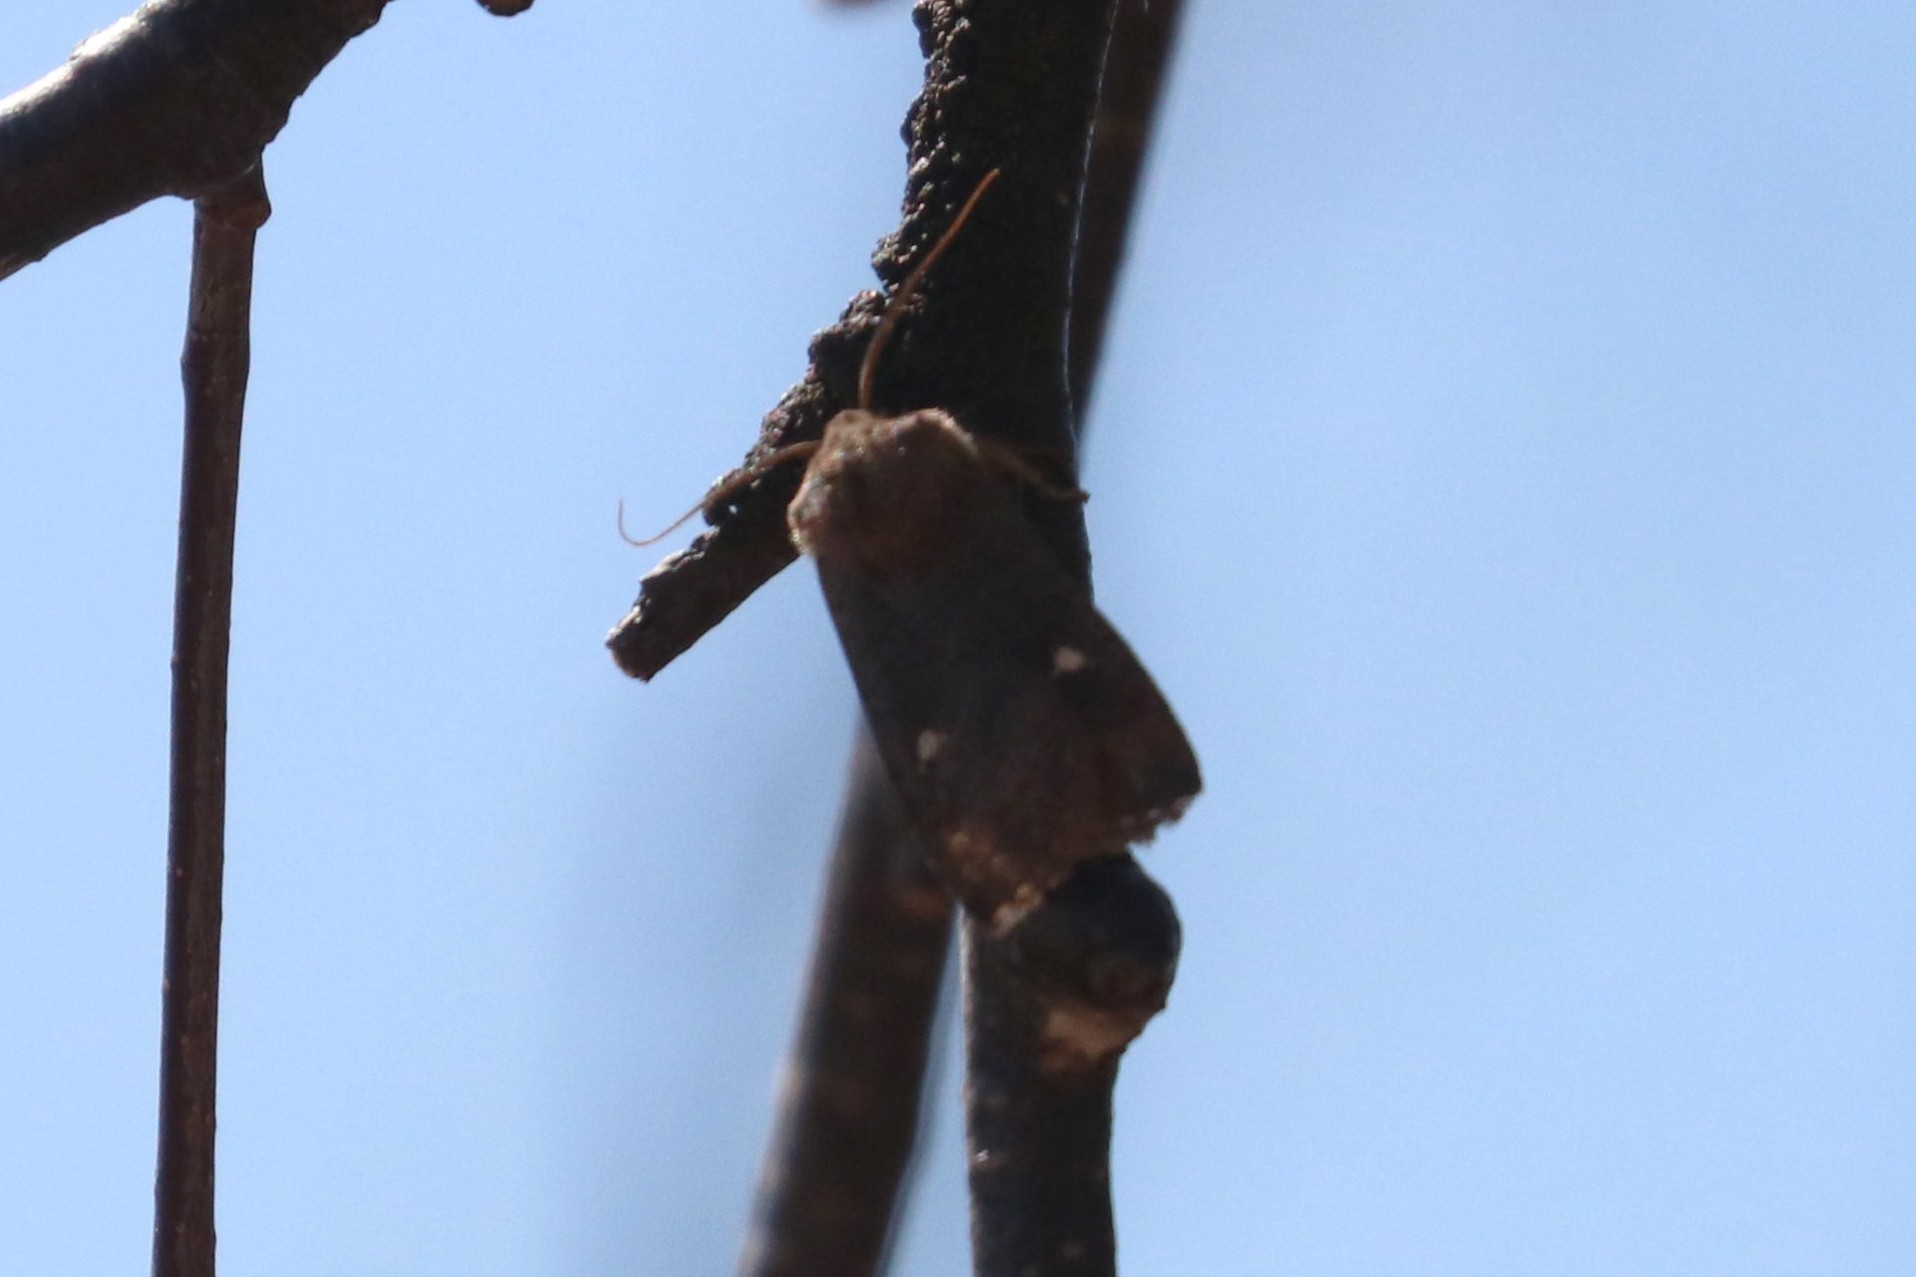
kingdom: Animalia
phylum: Arthropoda
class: Insecta
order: Lepidoptera
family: Noctuidae
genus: Eupsilia
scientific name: Eupsilia transversa
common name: Satellite
